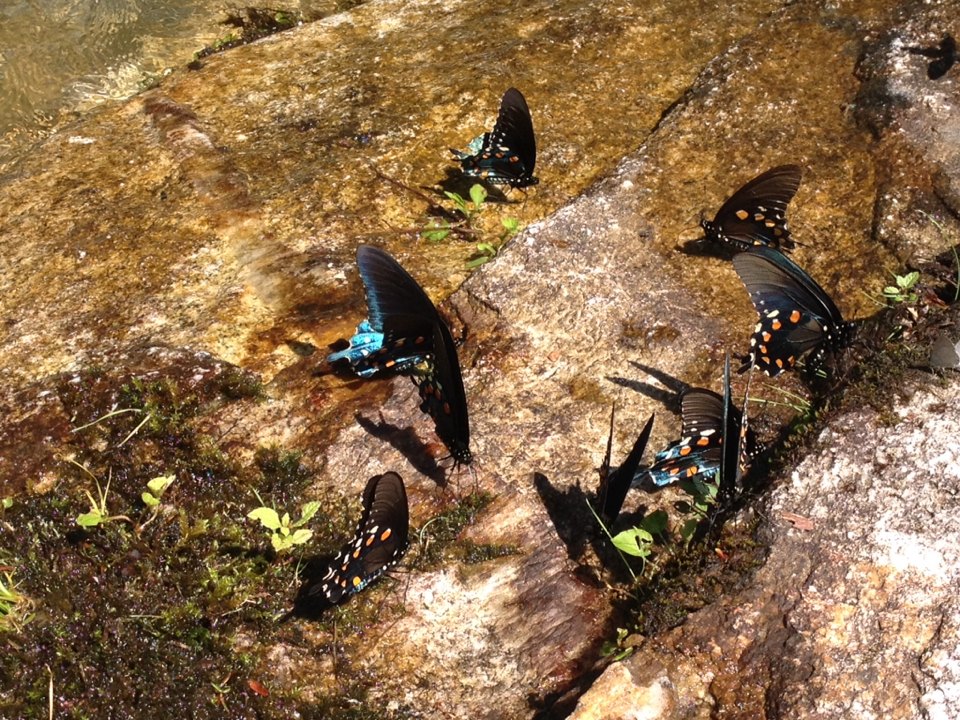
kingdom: Animalia
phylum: Arthropoda
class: Insecta
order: Lepidoptera
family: Papilionidae
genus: Battus
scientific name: Battus philenor
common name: Pipevine swallowtail
